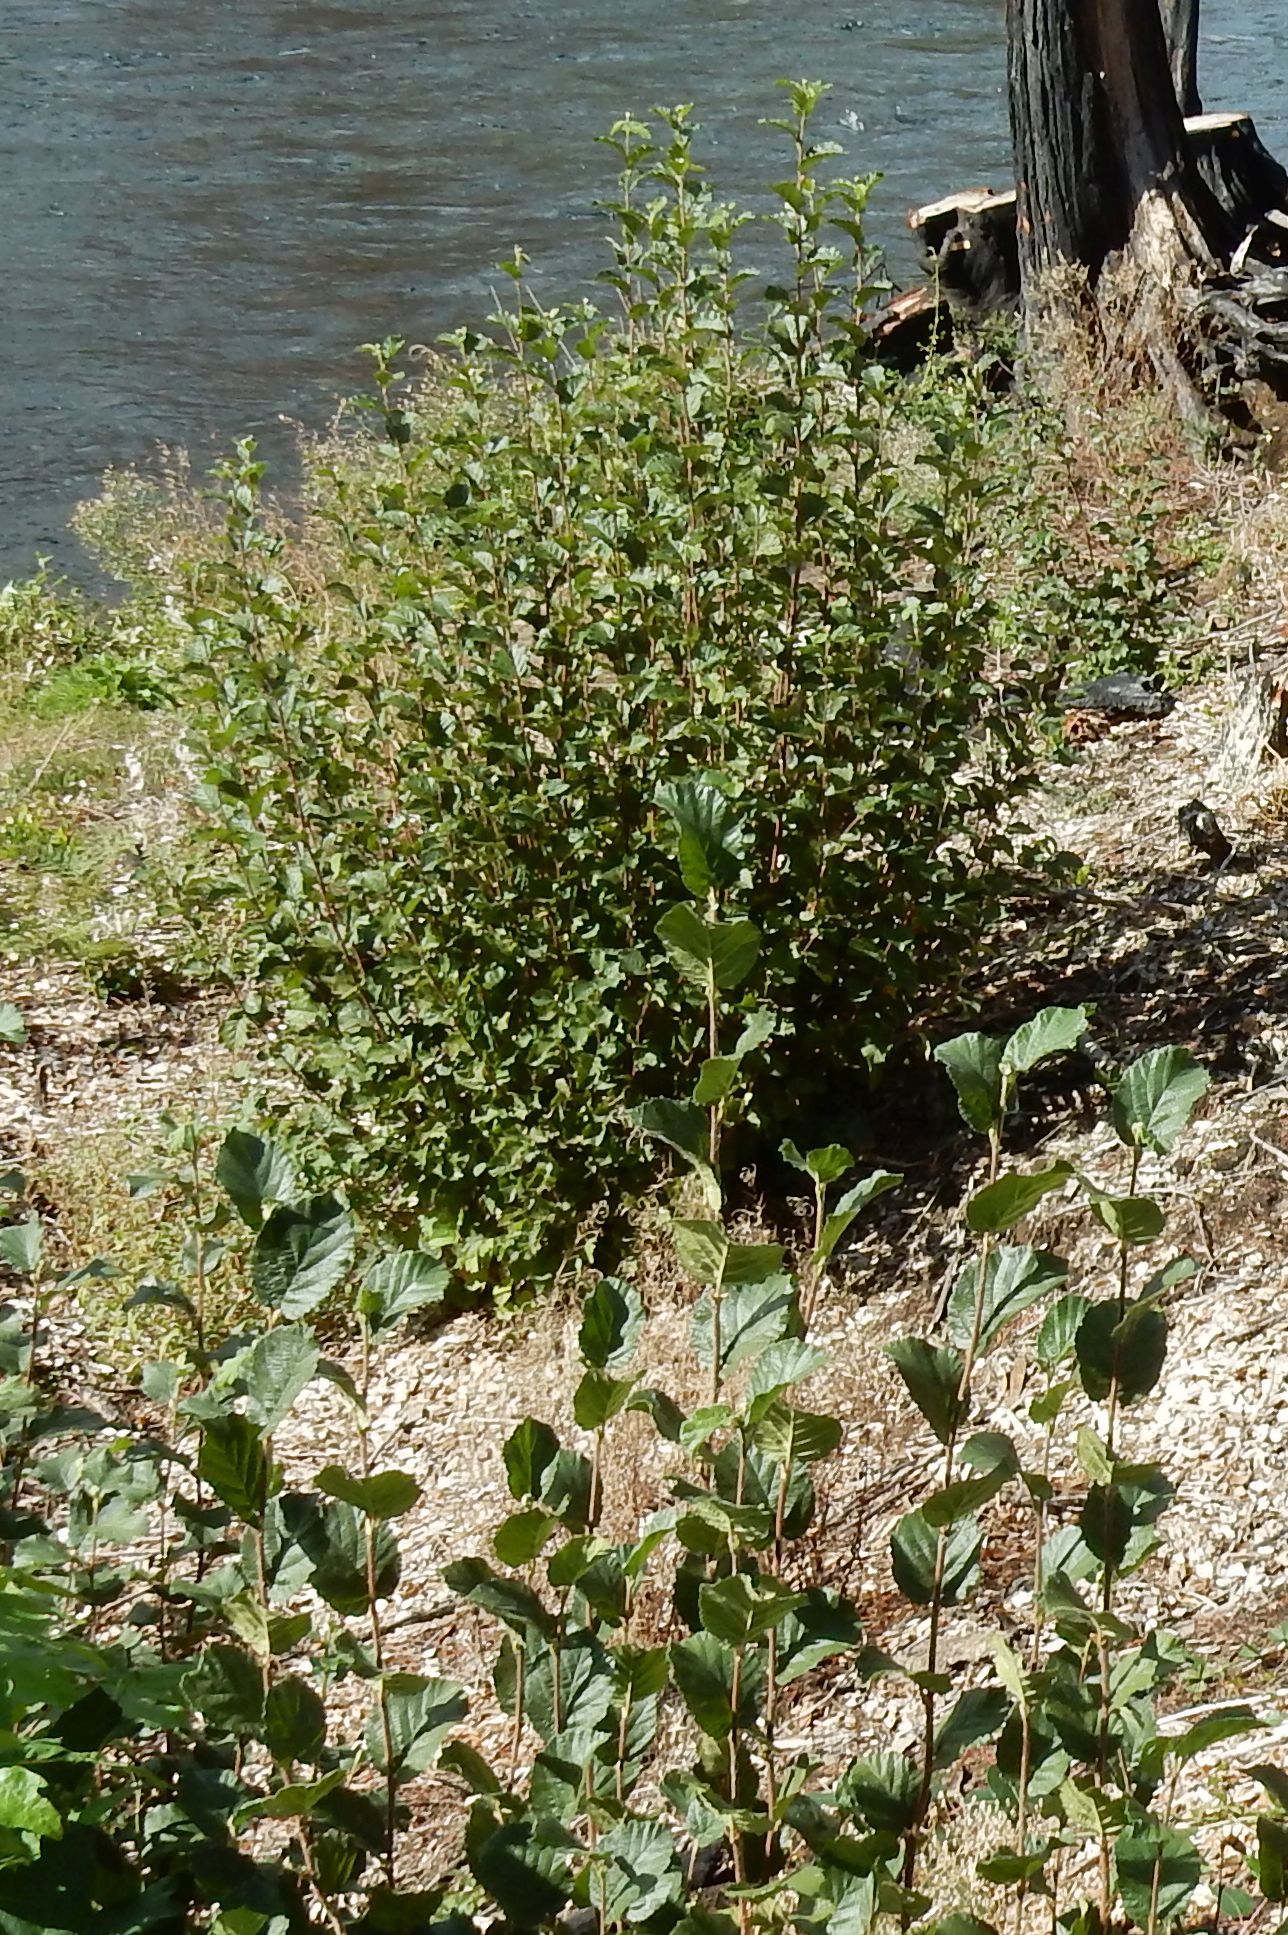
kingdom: Plantae
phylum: Tracheophyta
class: Magnoliopsida
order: Fagales
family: Betulaceae
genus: Corylus
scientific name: Corylus cornuta
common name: Beaked hazel
